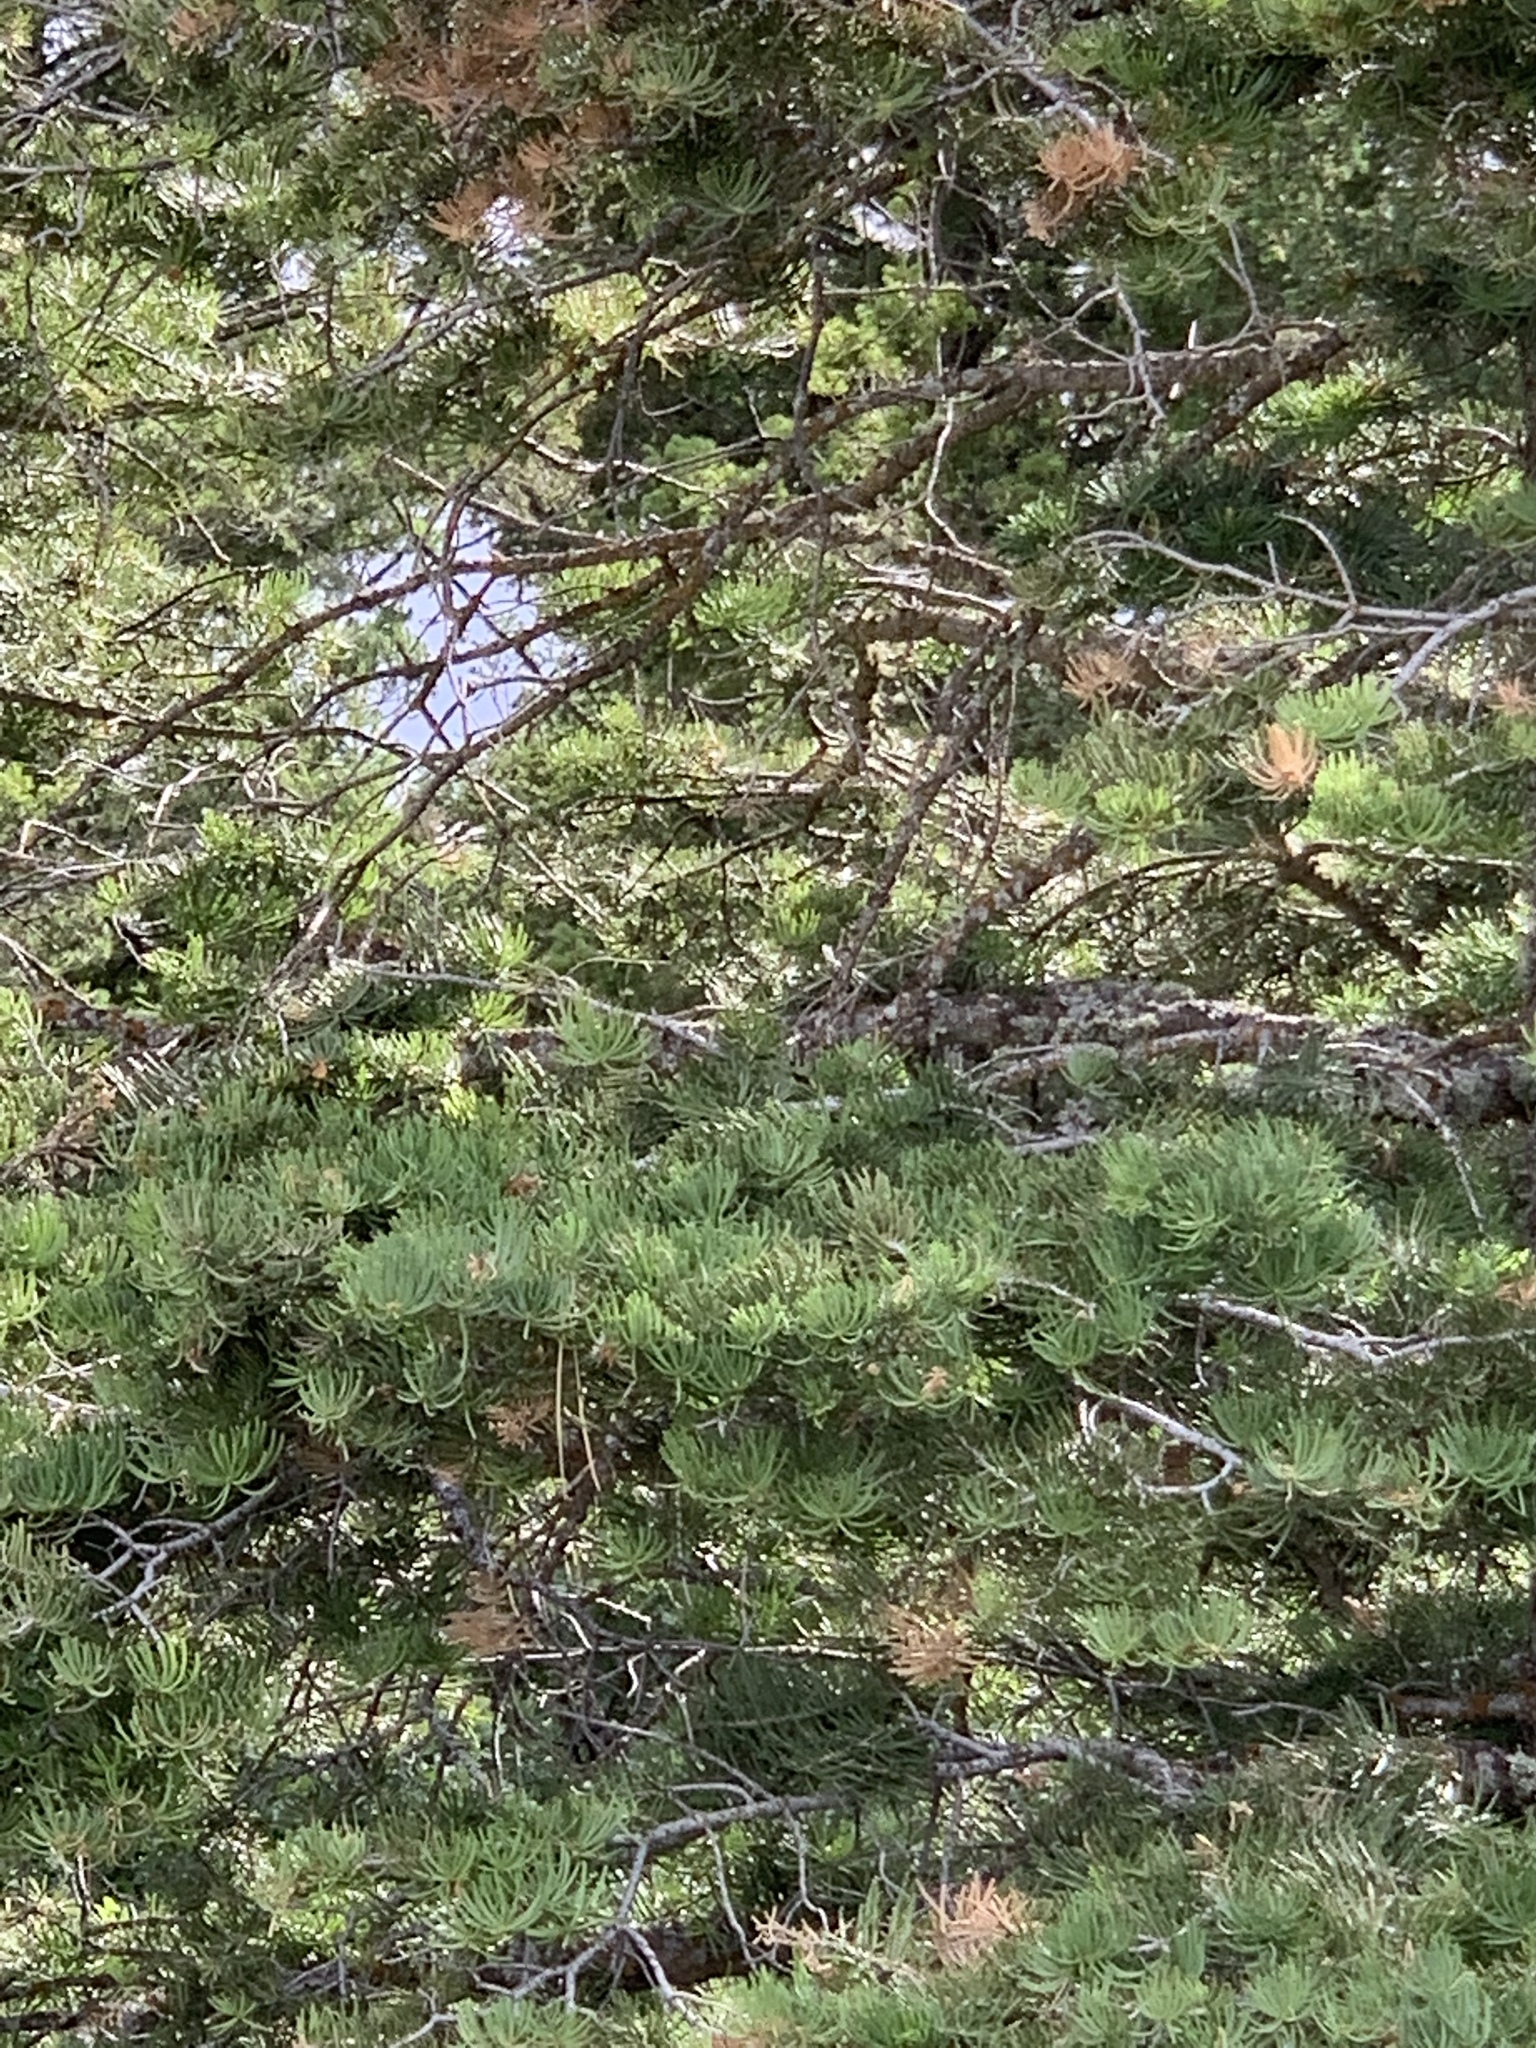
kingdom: Plantae
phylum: Tracheophyta
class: Pinopsida
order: Pinales
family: Pinaceae
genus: Abies
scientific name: Abies concolor
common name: Colorado fir
